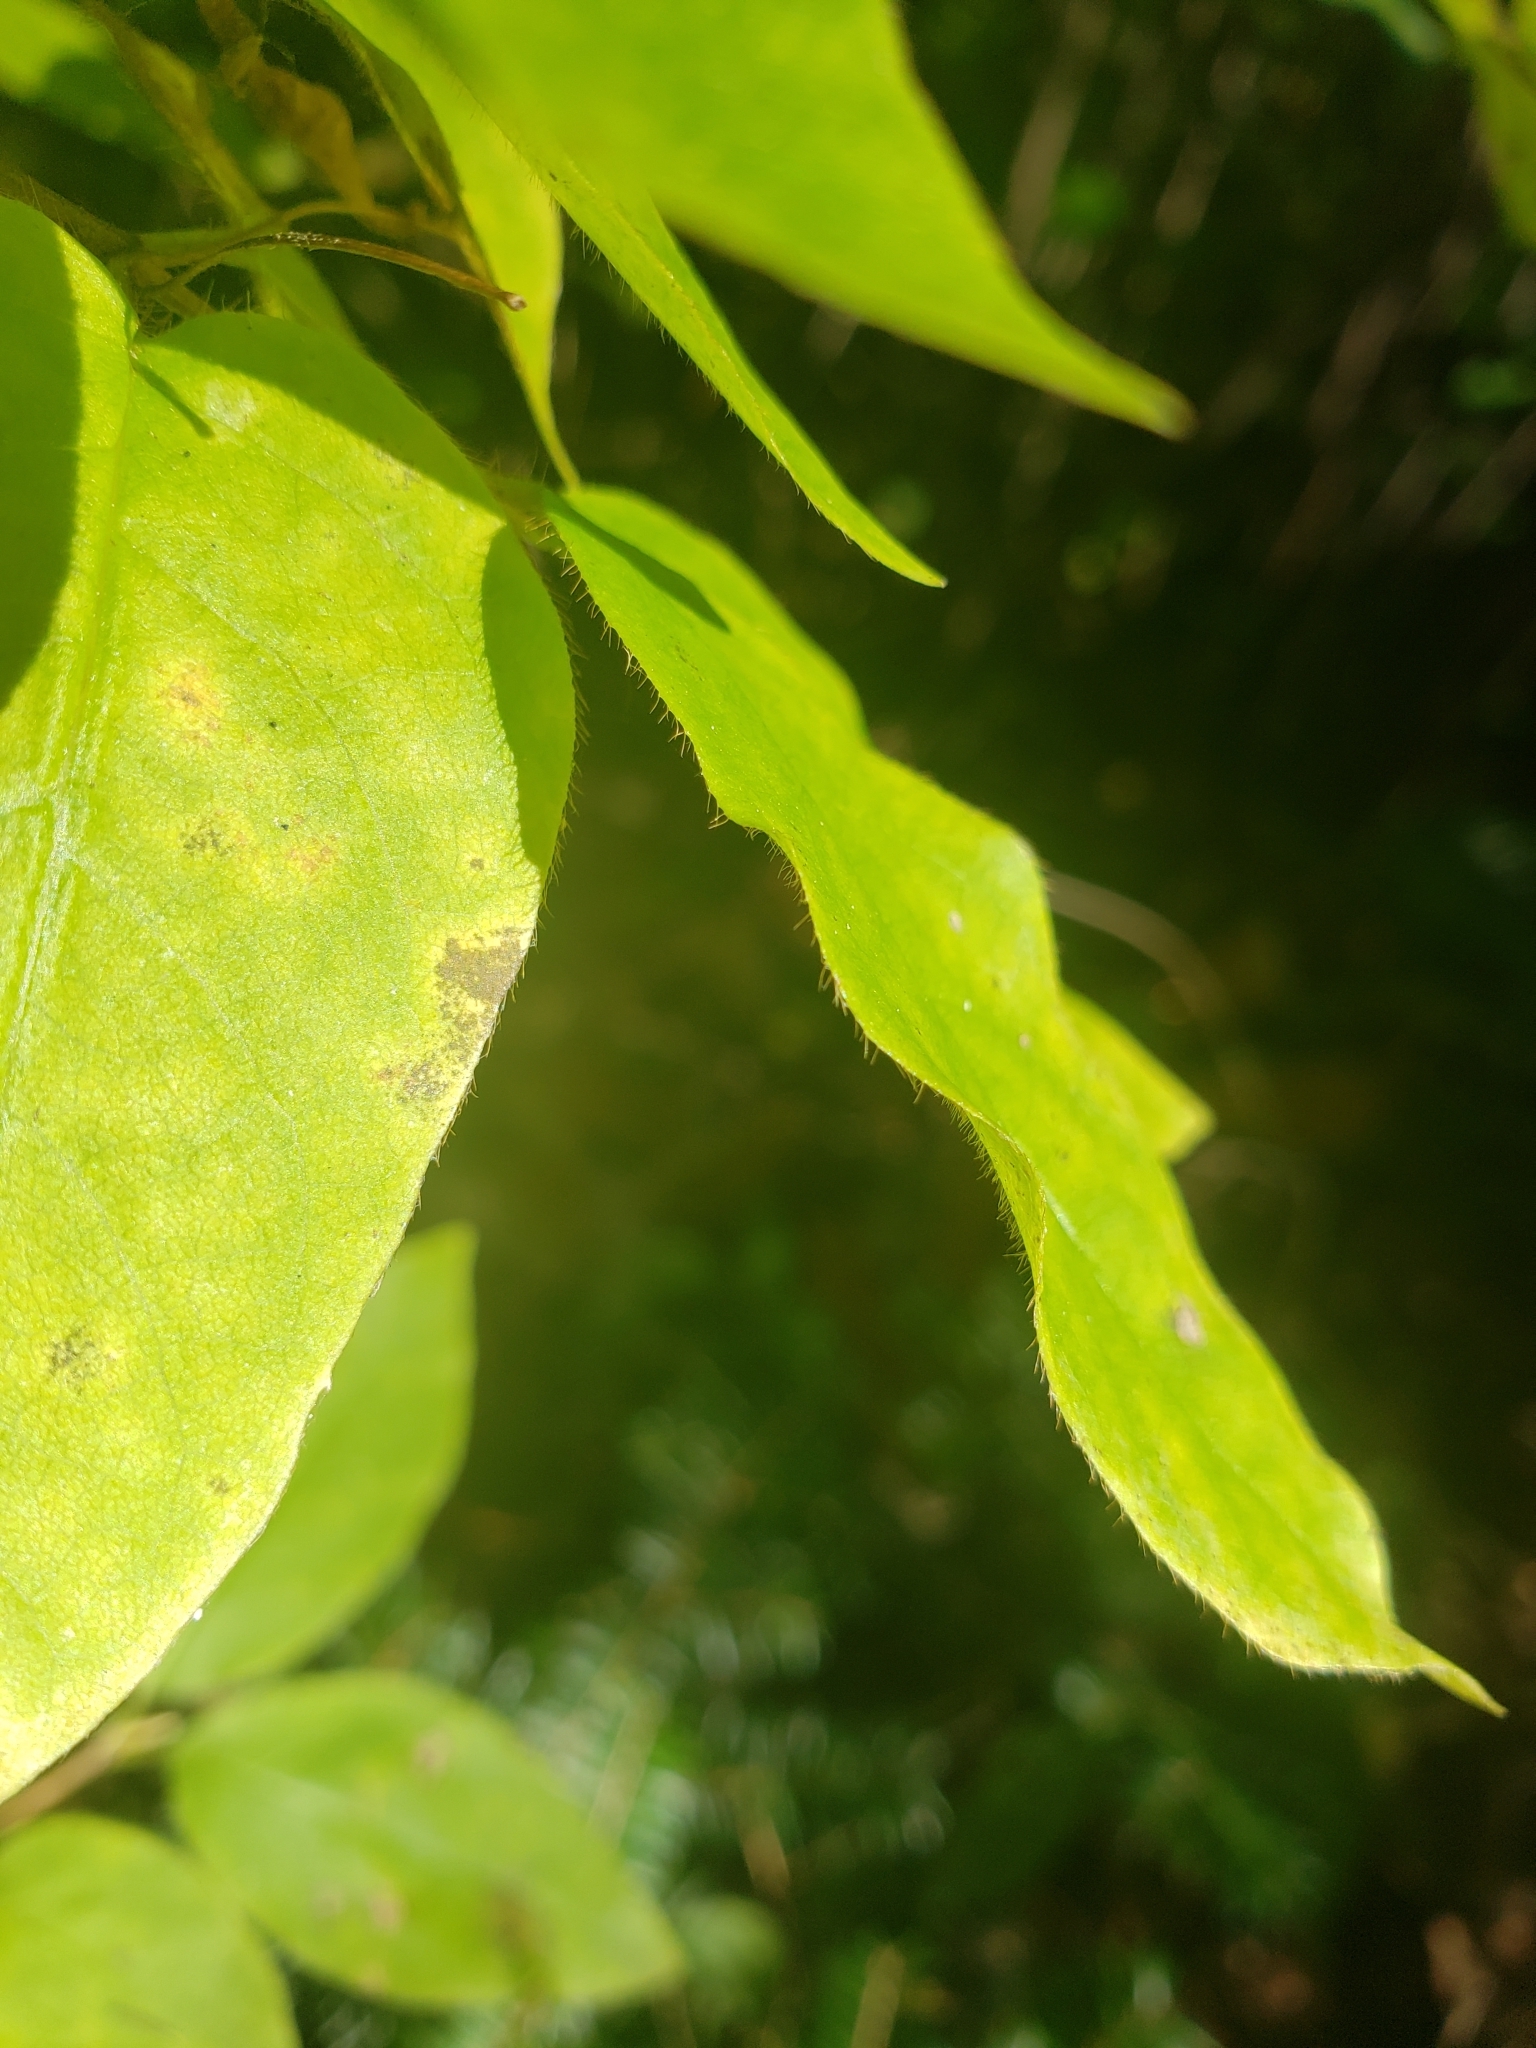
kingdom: Plantae
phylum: Tracheophyta
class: Magnoliopsida
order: Dipsacales
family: Caprifoliaceae
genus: Lonicera
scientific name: Lonicera canadensis
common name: American fly-honeysuckle
